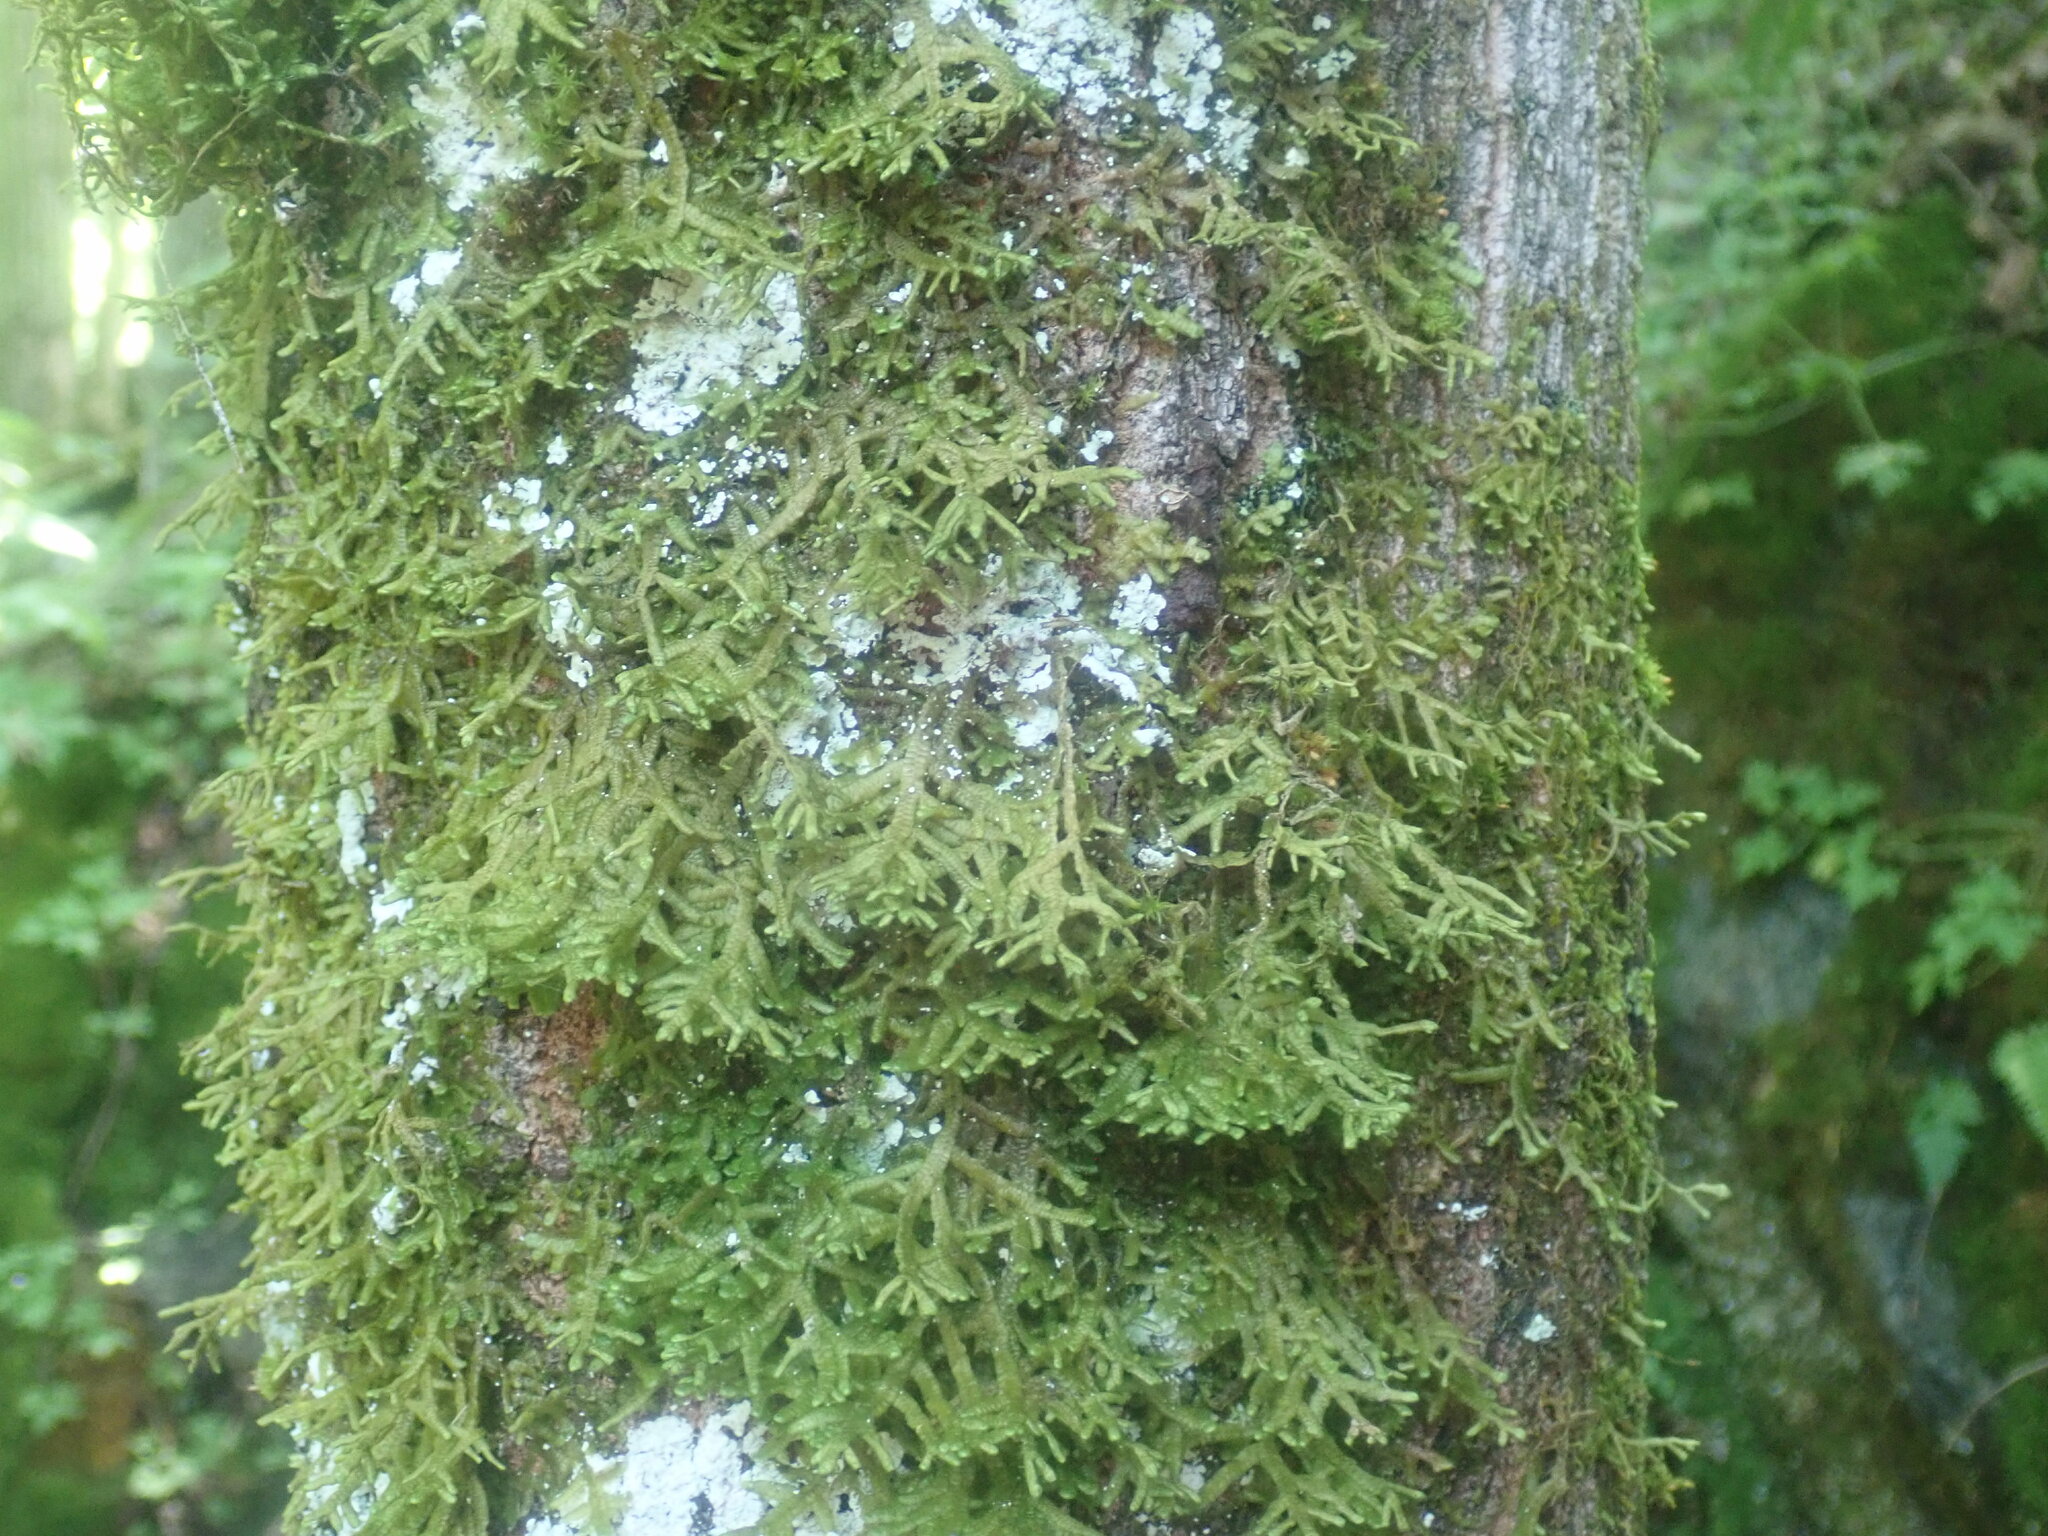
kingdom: Plantae
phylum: Marchantiophyta
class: Jungermanniopsida
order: Porellales
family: Porellaceae
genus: Porella
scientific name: Porella platyphylla
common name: Wall scalewort
